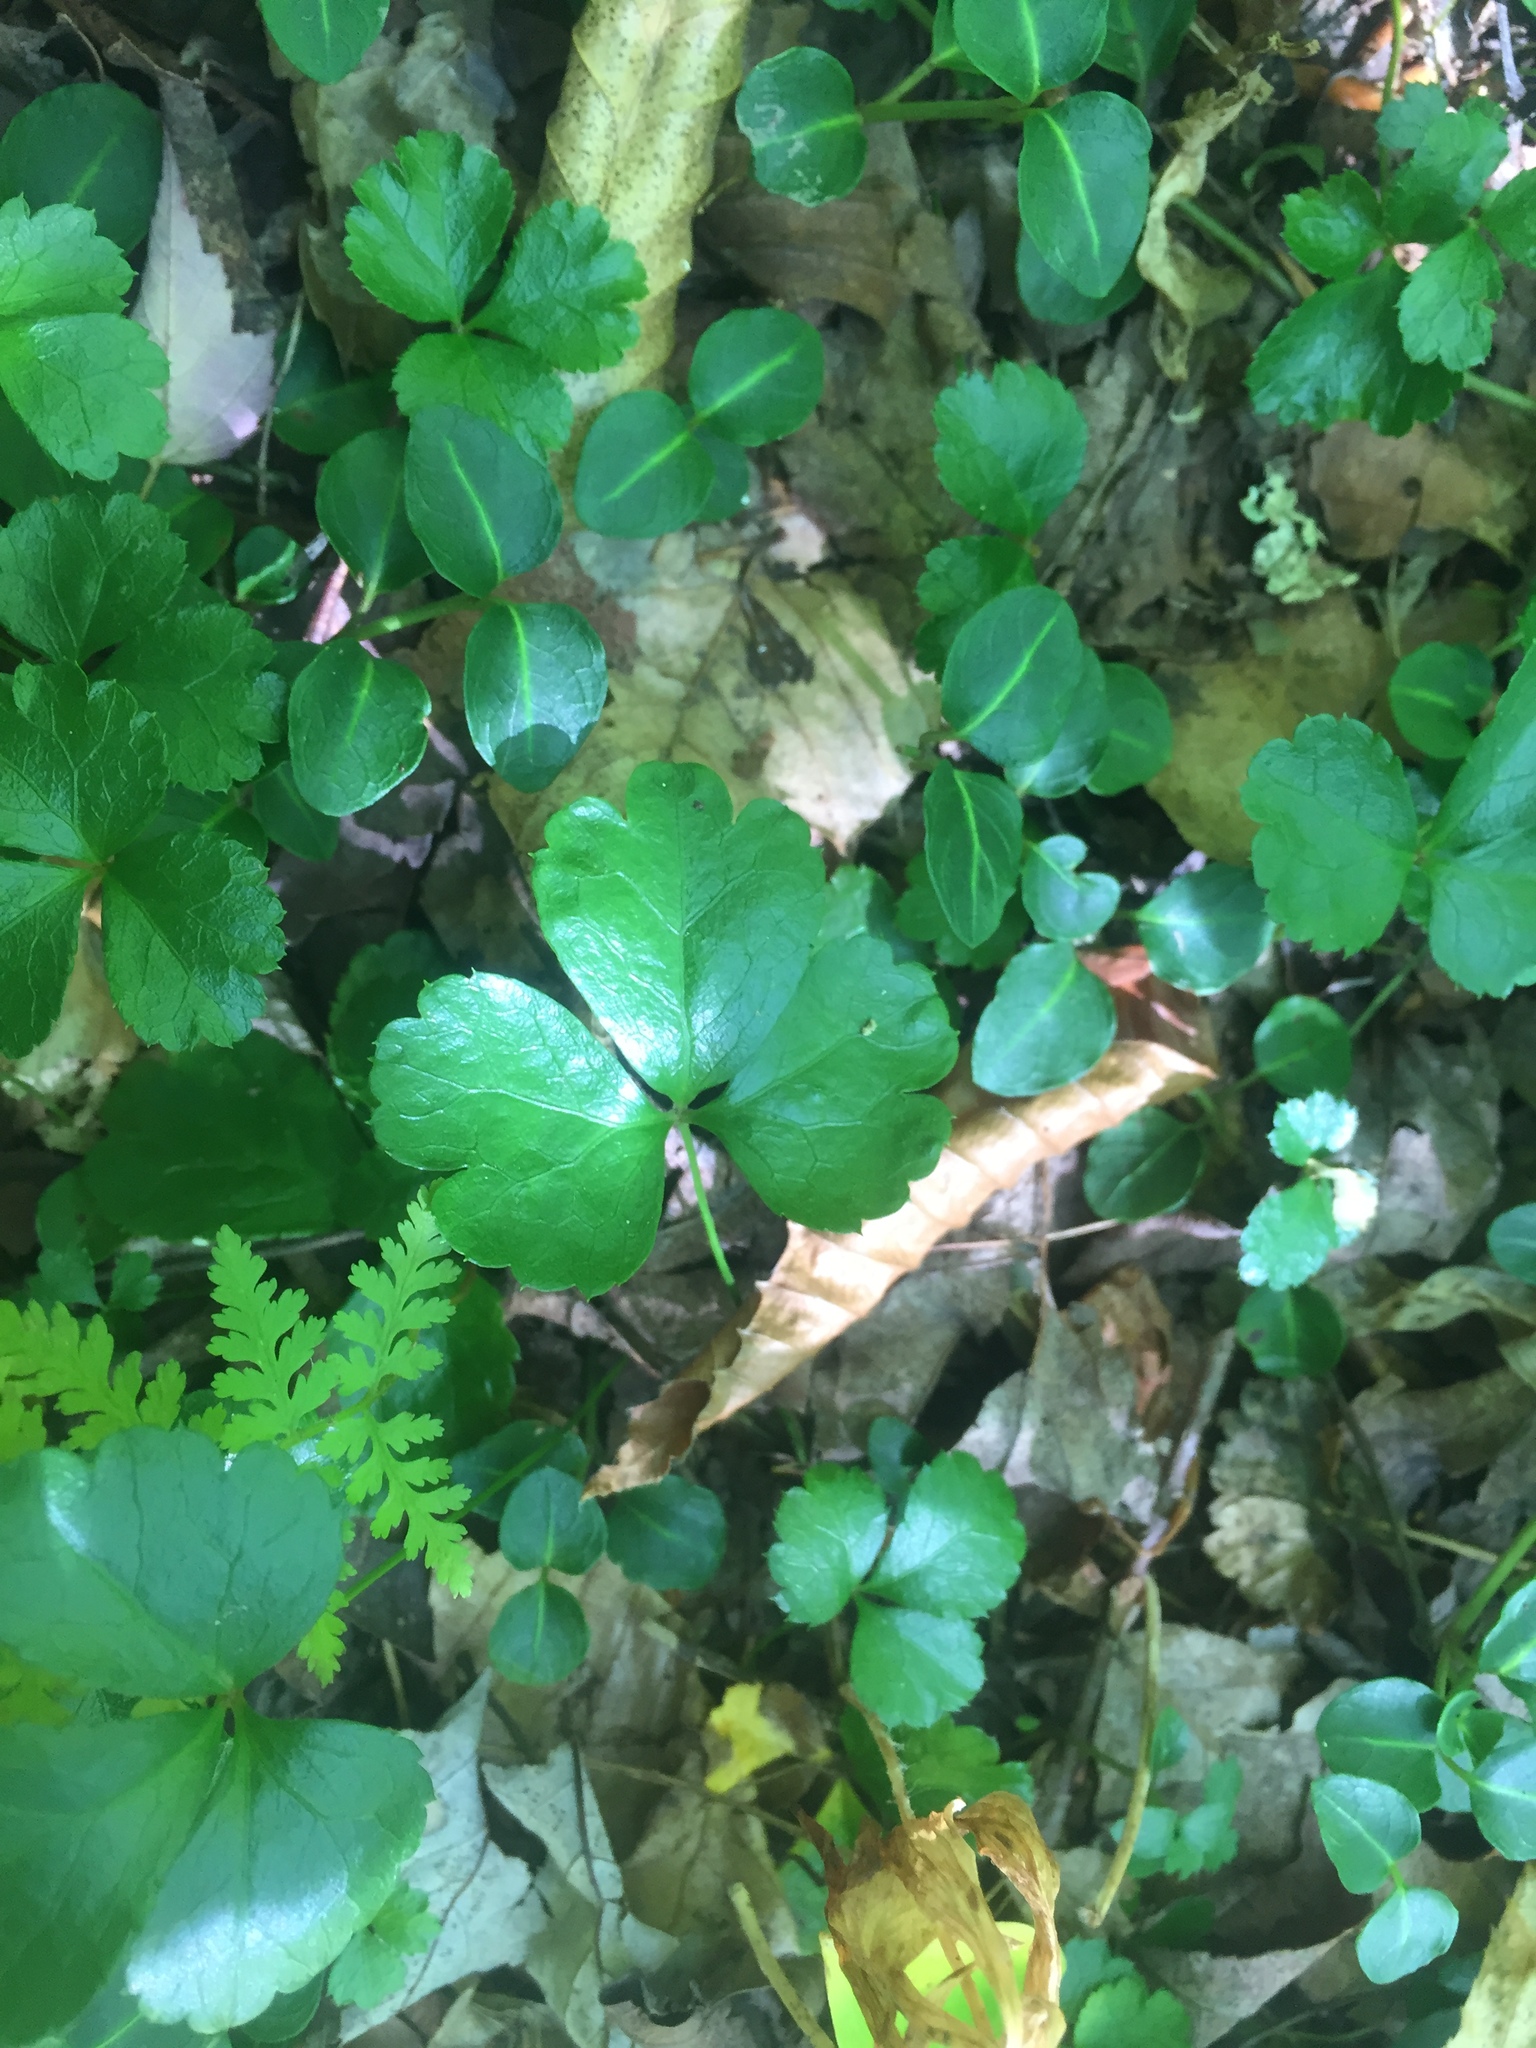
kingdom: Plantae
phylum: Tracheophyta
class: Magnoliopsida
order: Ranunculales
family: Ranunculaceae
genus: Coptis
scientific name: Coptis trifolia
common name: Canker-root
